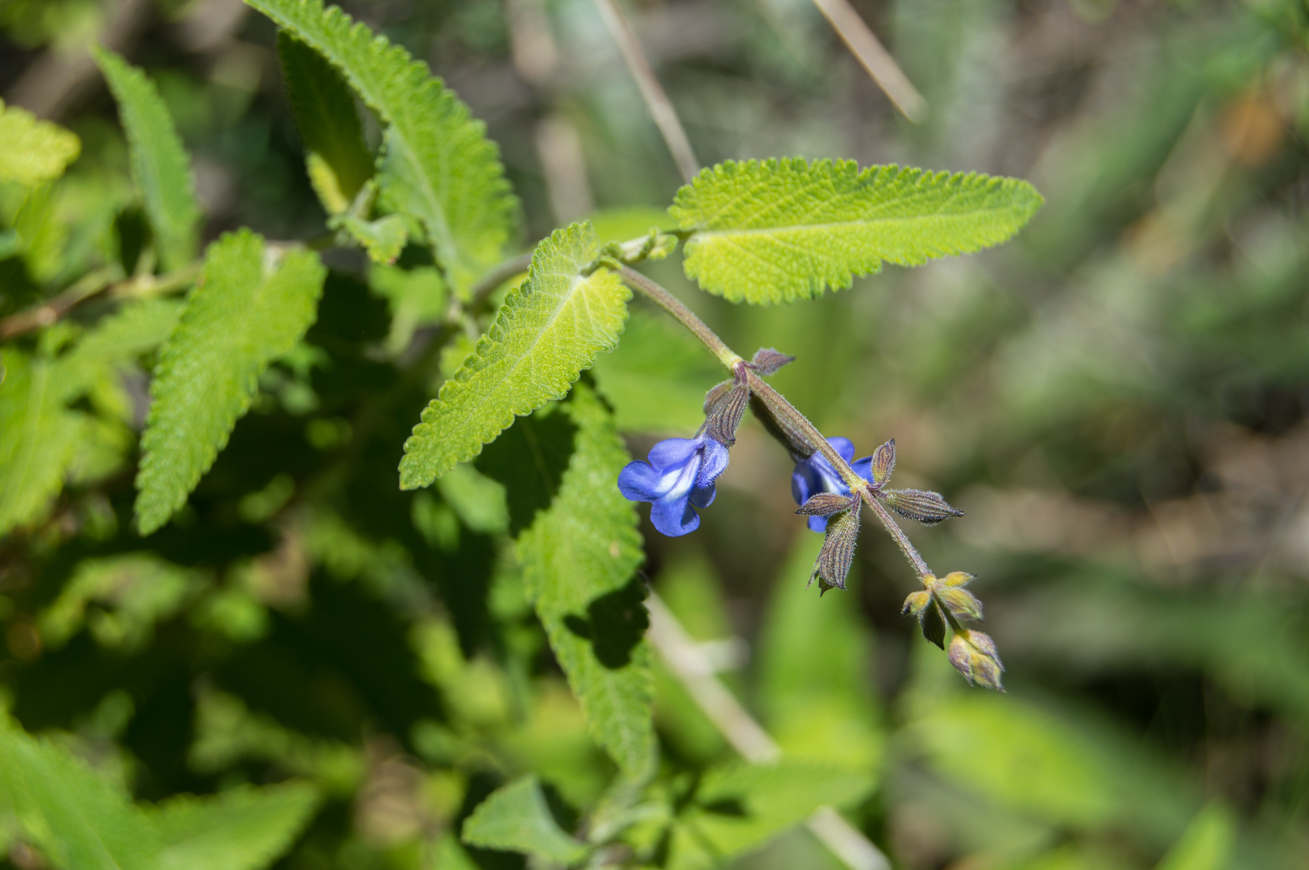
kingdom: Plantae
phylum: Tracheophyta
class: Magnoliopsida
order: Lamiales
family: Lamiaceae
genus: Salvia
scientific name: Salvia cuspidata
